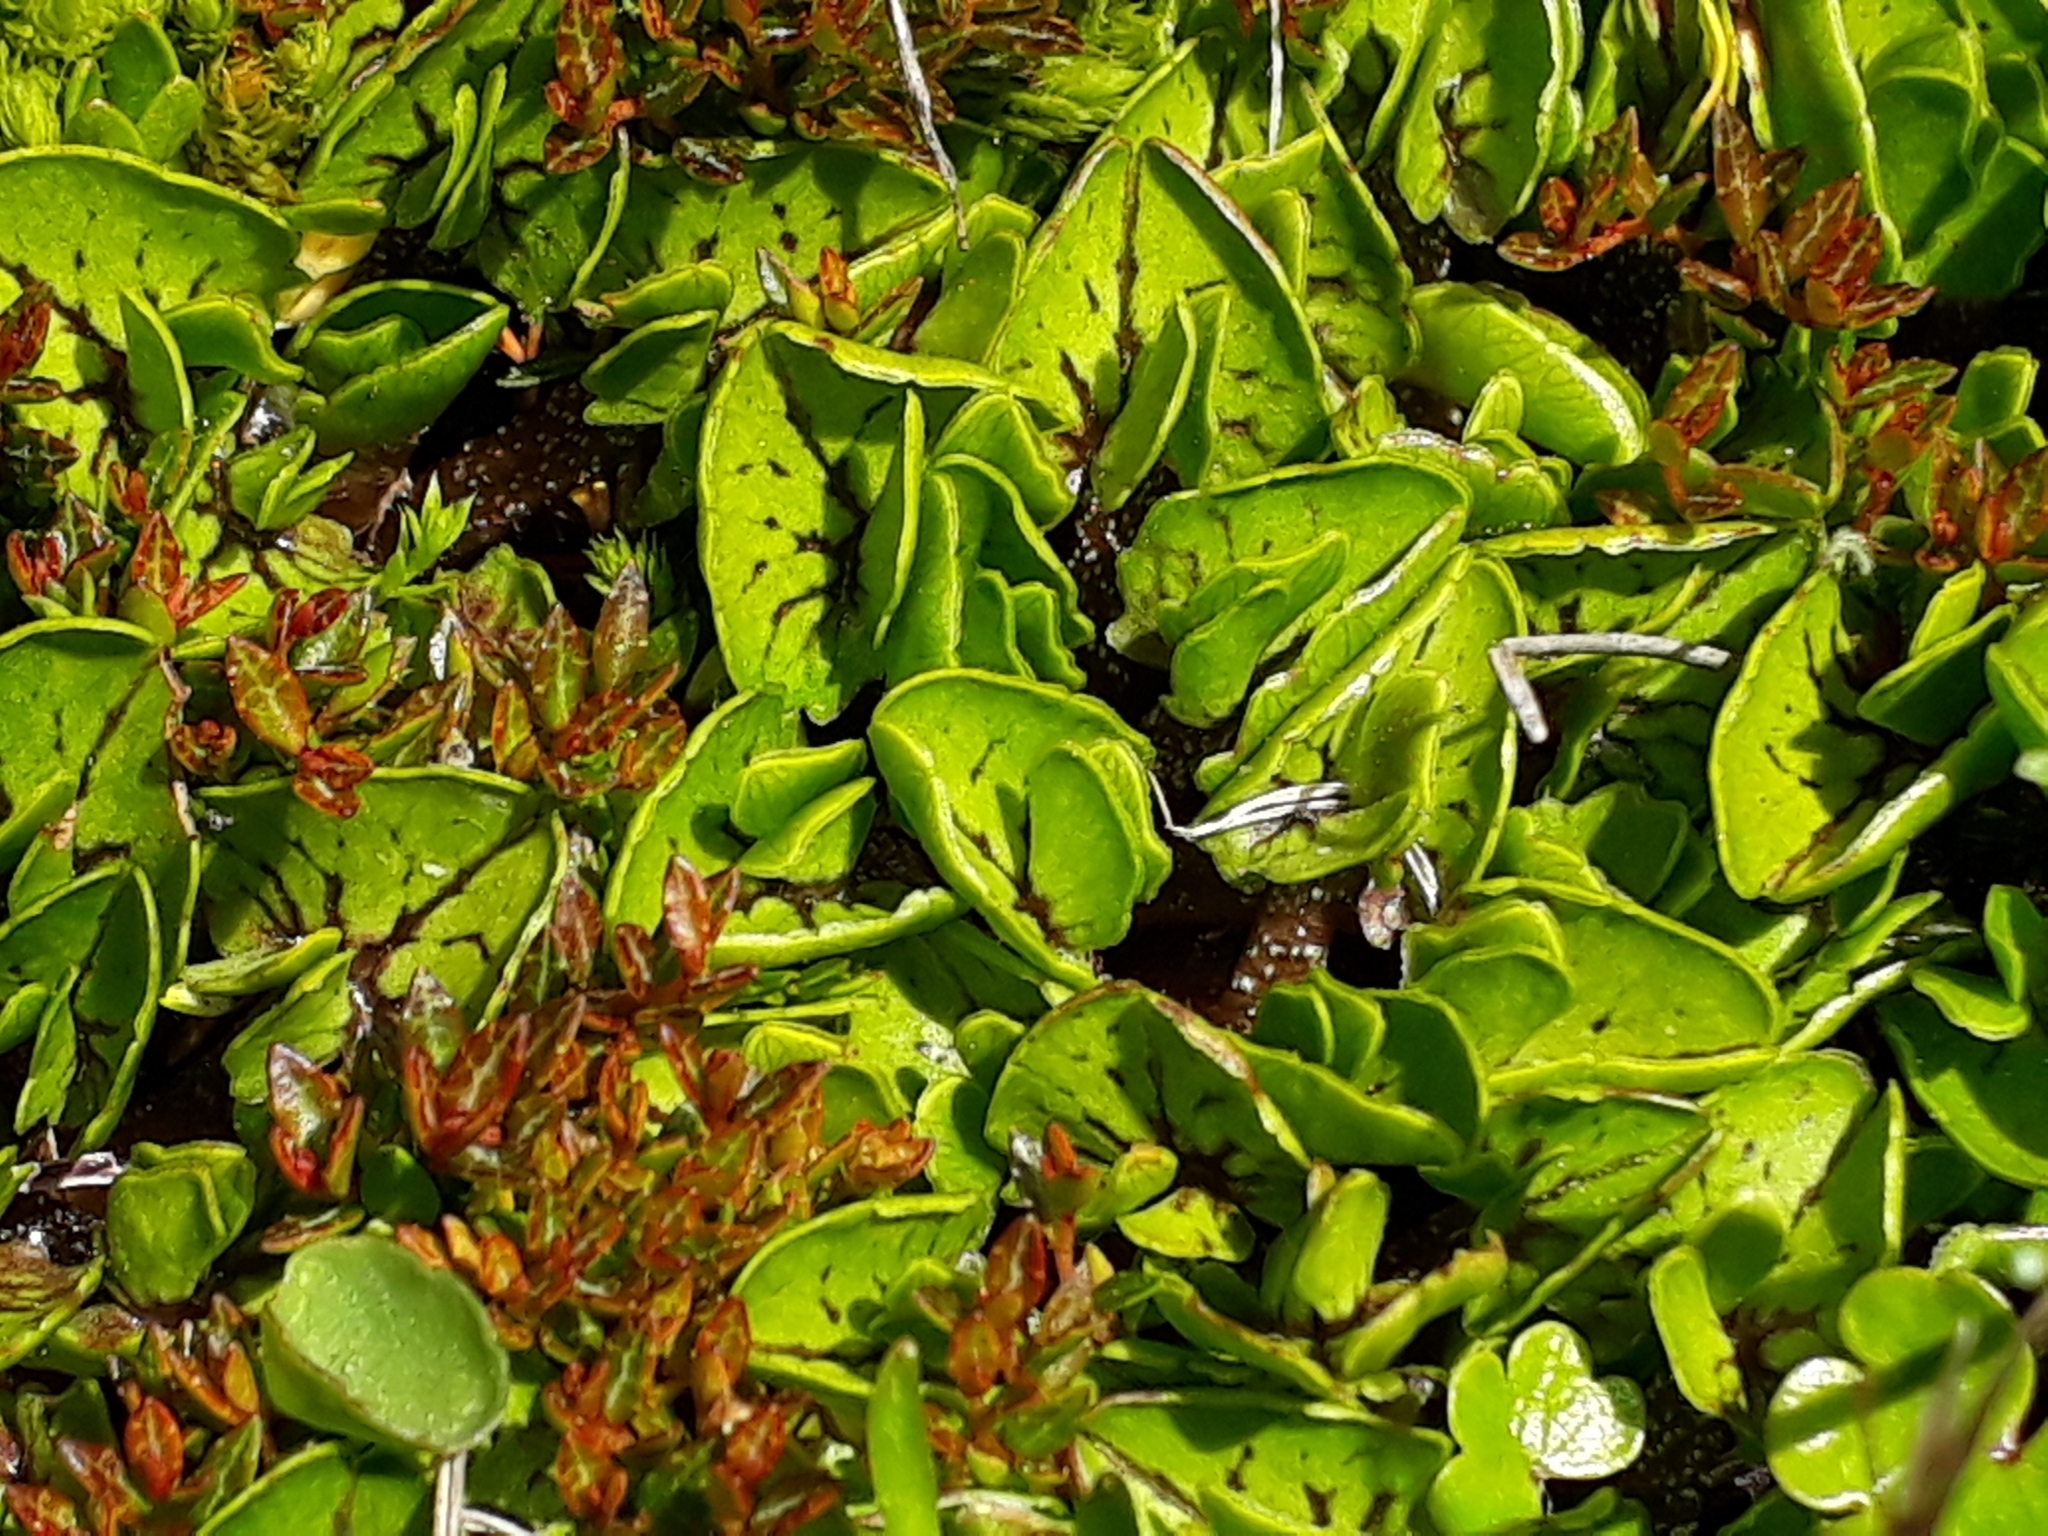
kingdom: Plantae
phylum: Tracheophyta
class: Magnoliopsida
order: Ranunculales
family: Ranunculaceae
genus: Caltha
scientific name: Caltha obtusa
